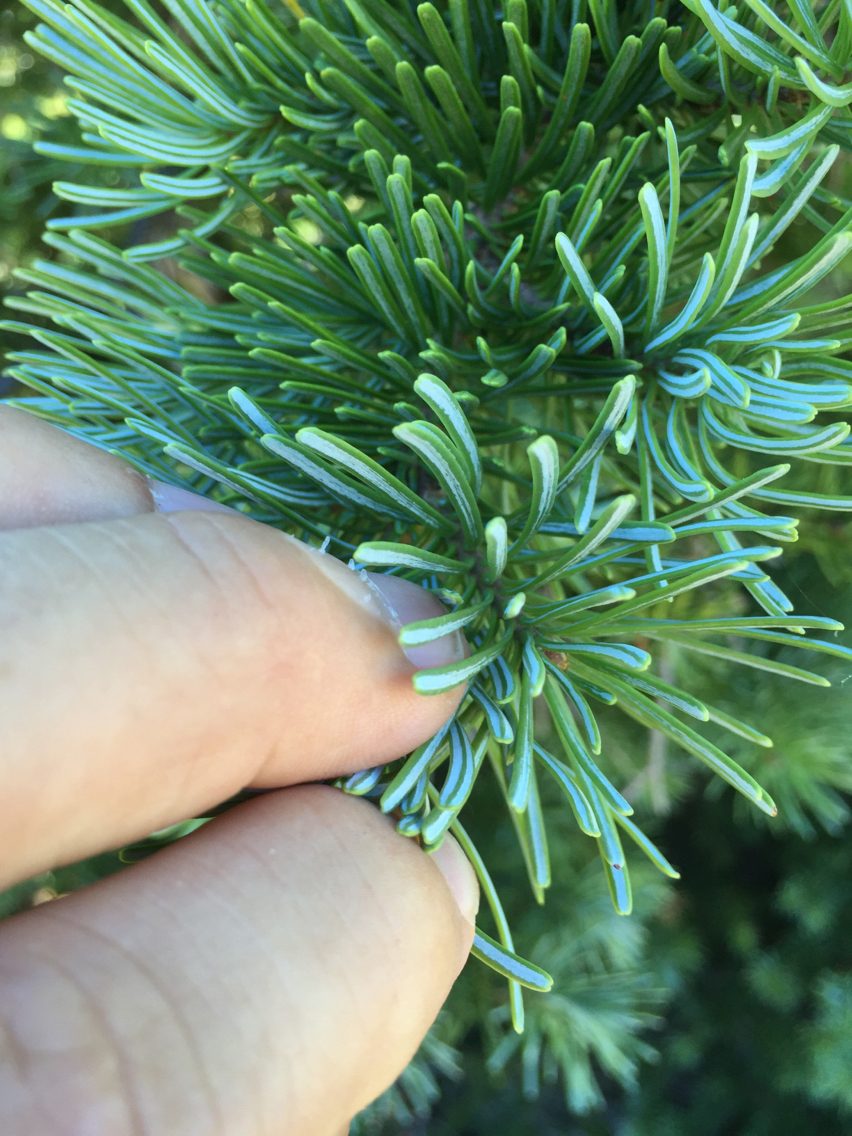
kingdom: Plantae
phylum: Tracheophyta
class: Pinopsida
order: Pinales
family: Pinaceae
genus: Abies
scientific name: Abies lasiocarpa
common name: Subalpine fir
